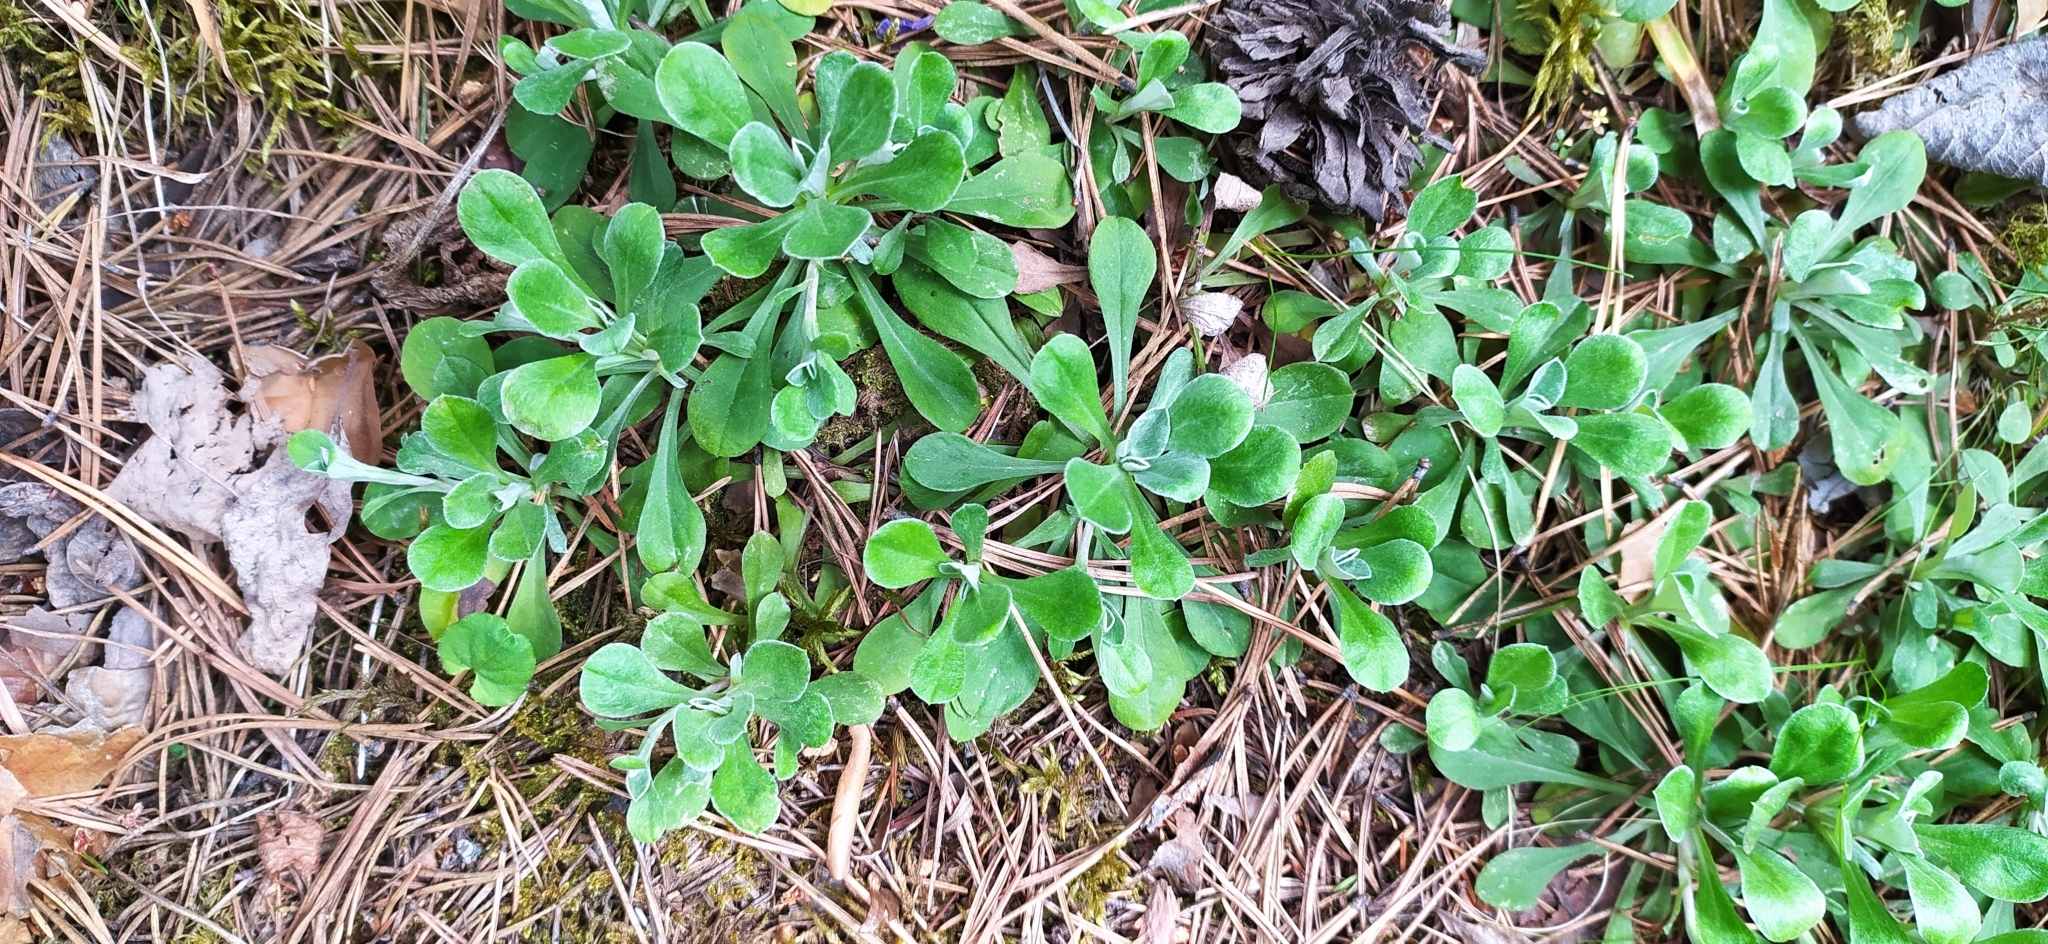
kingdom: Plantae
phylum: Tracheophyta
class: Magnoliopsida
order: Asterales
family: Asteraceae
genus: Antennaria
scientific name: Antennaria dioica
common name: Mountain everlasting
